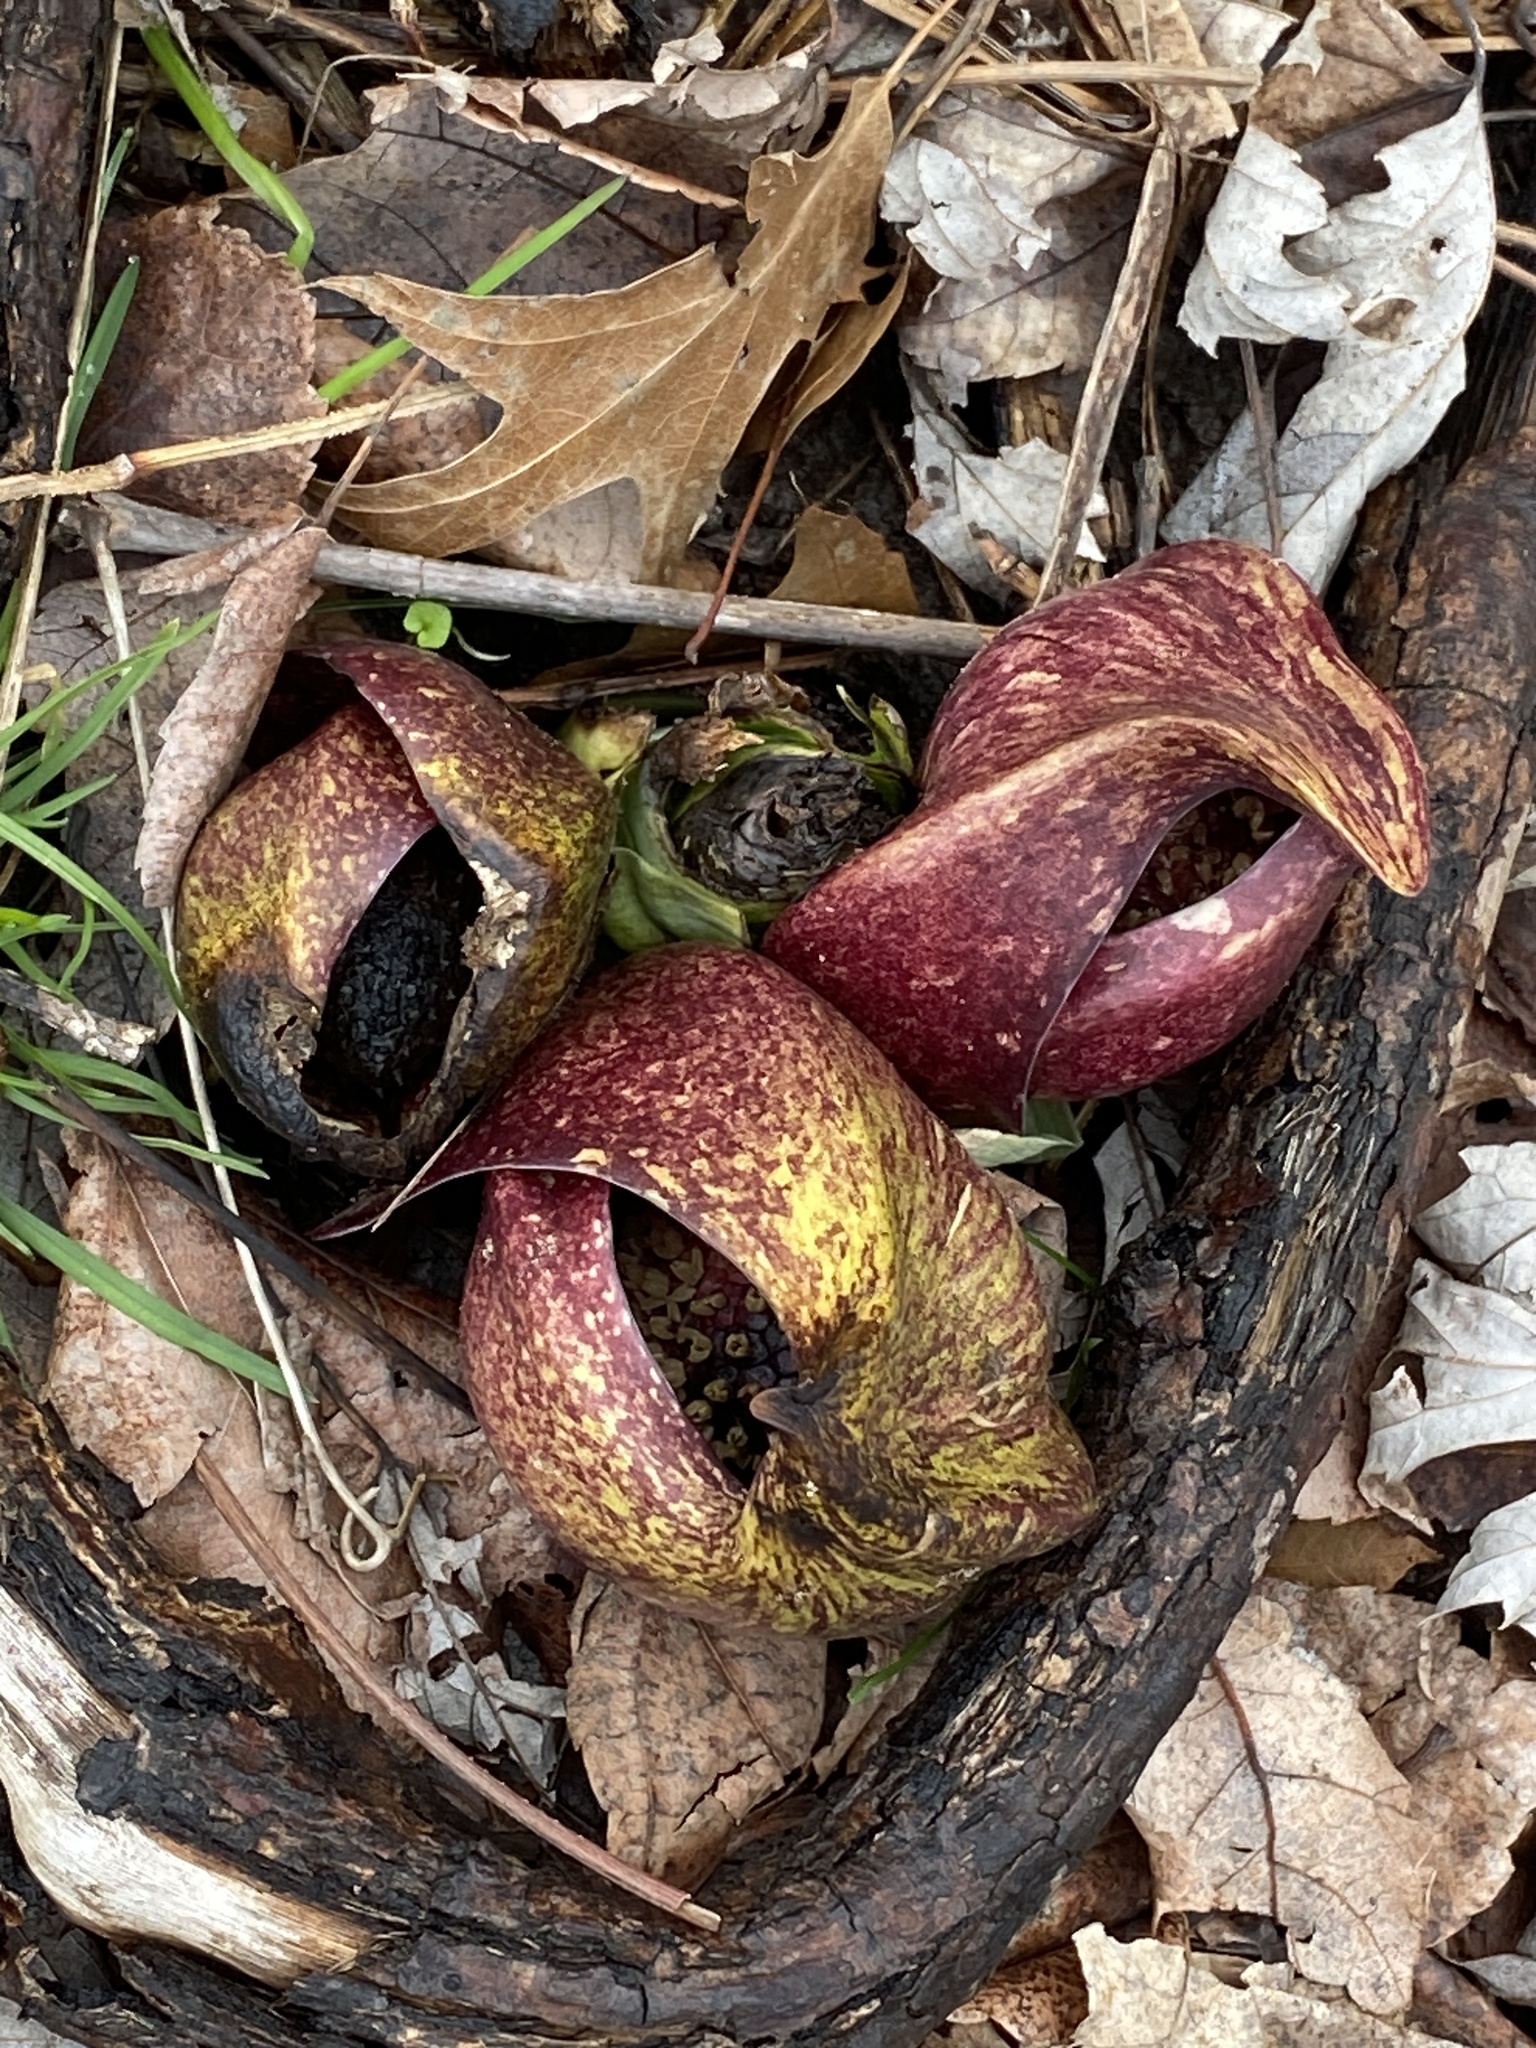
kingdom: Plantae
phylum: Tracheophyta
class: Liliopsida
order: Alismatales
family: Araceae
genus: Symplocarpus
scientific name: Symplocarpus foetidus
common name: Eastern skunk cabbage
